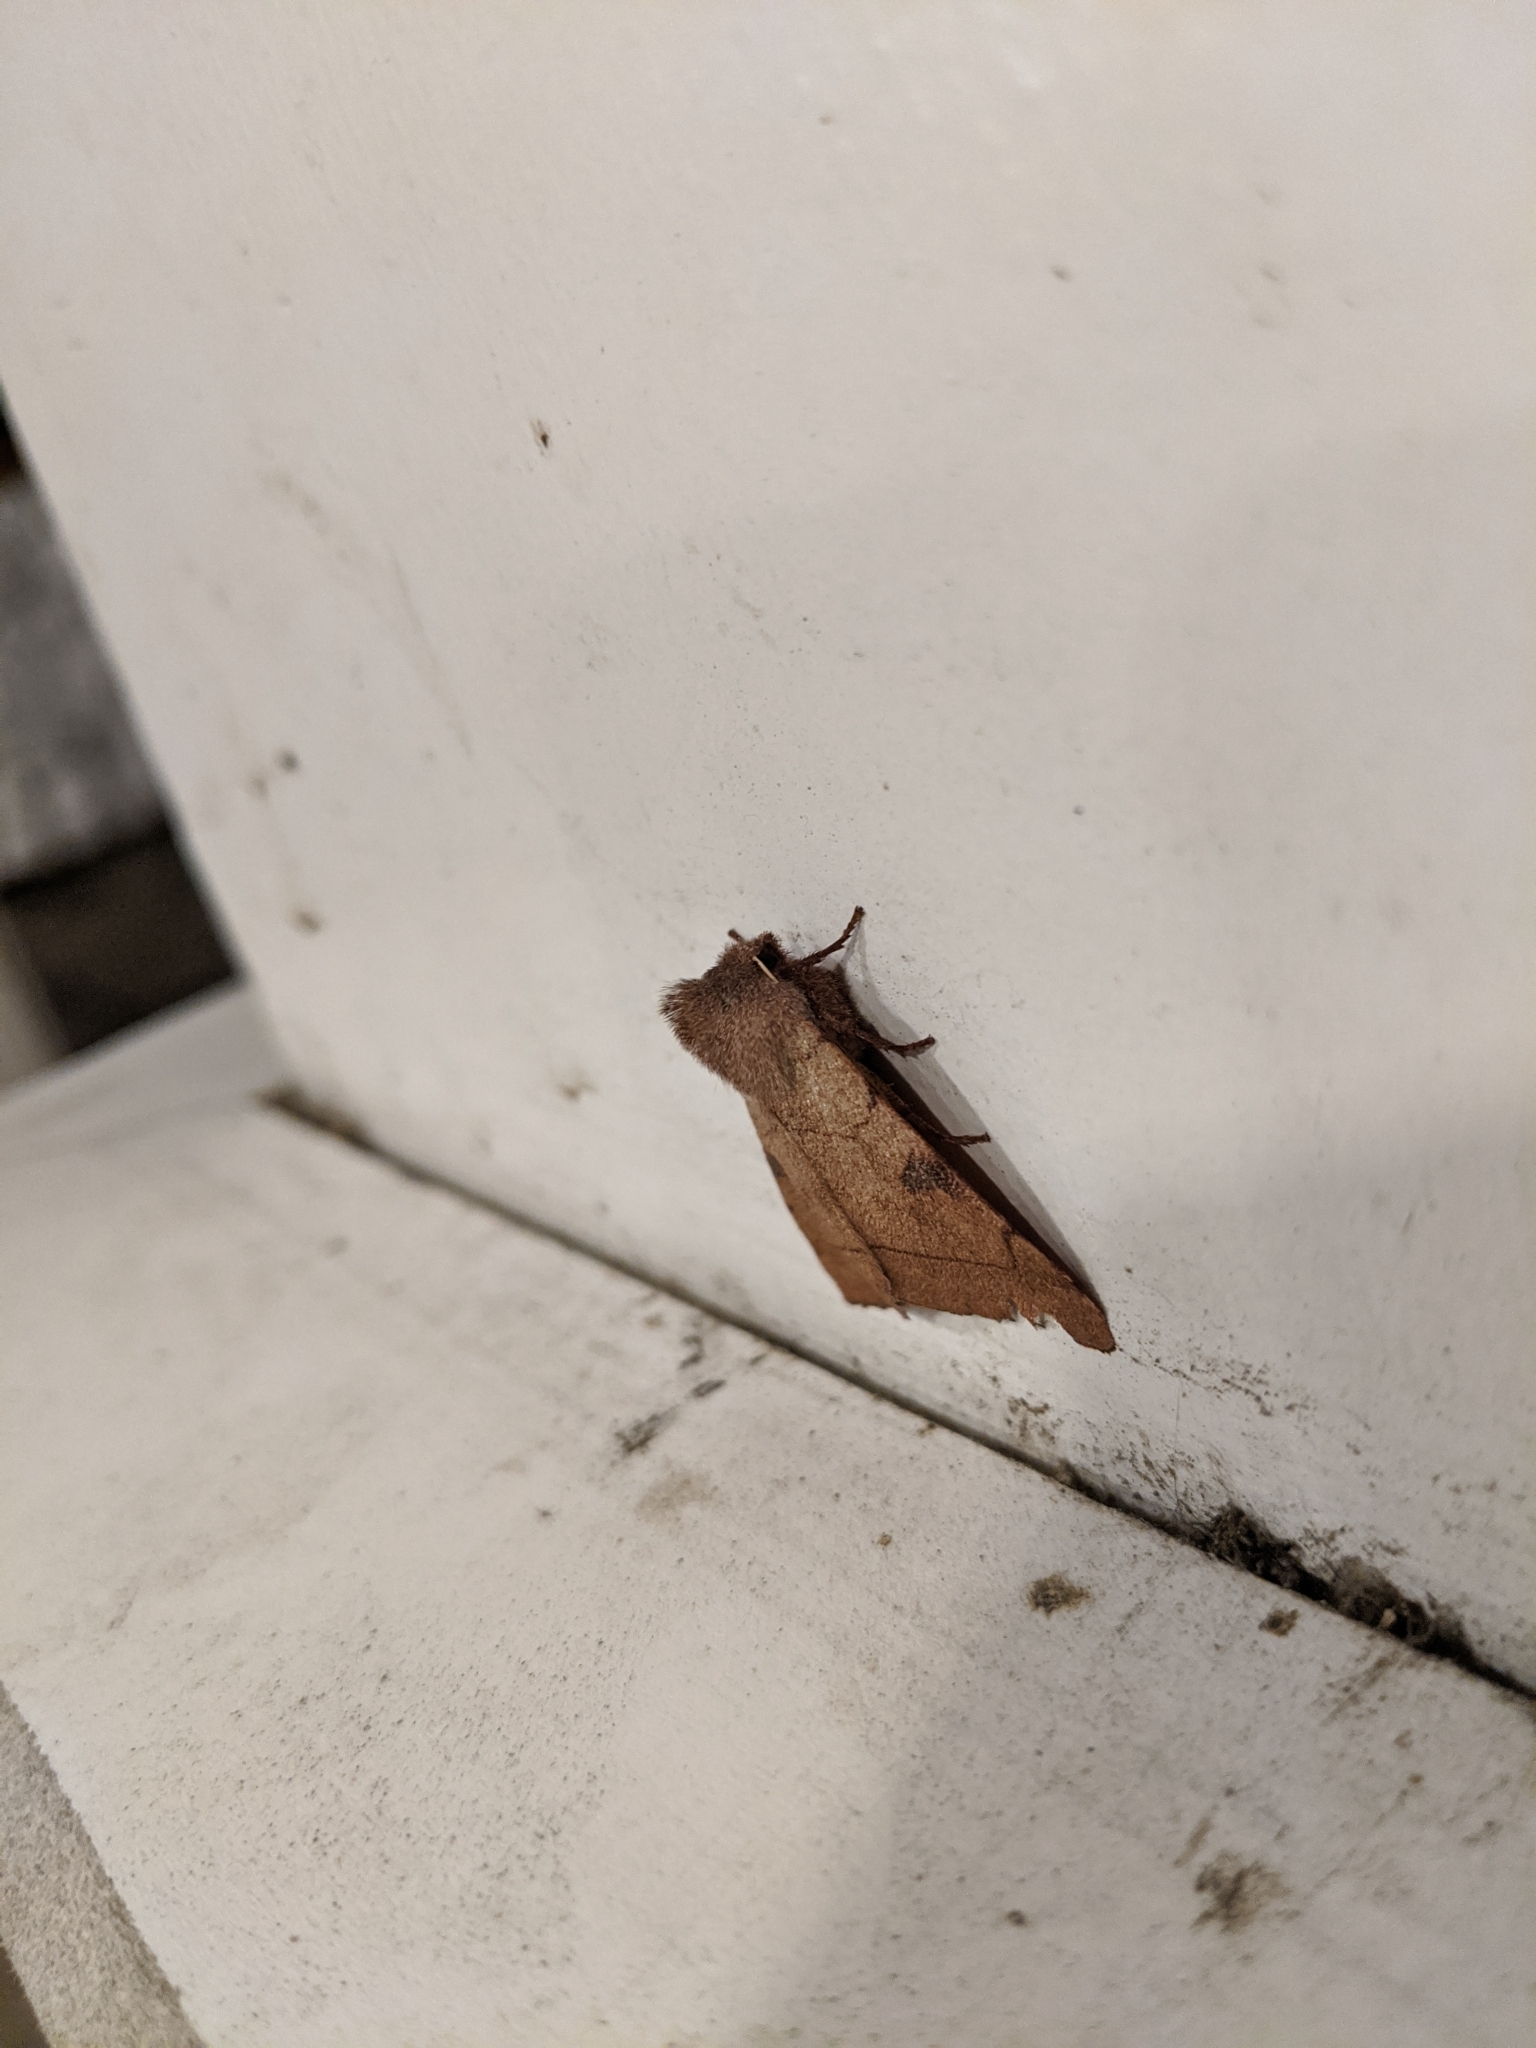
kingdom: Animalia
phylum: Arthropoda
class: Insecta
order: Lepidoptera
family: Noctuidae
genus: Choephora
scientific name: Choephora fungorum
